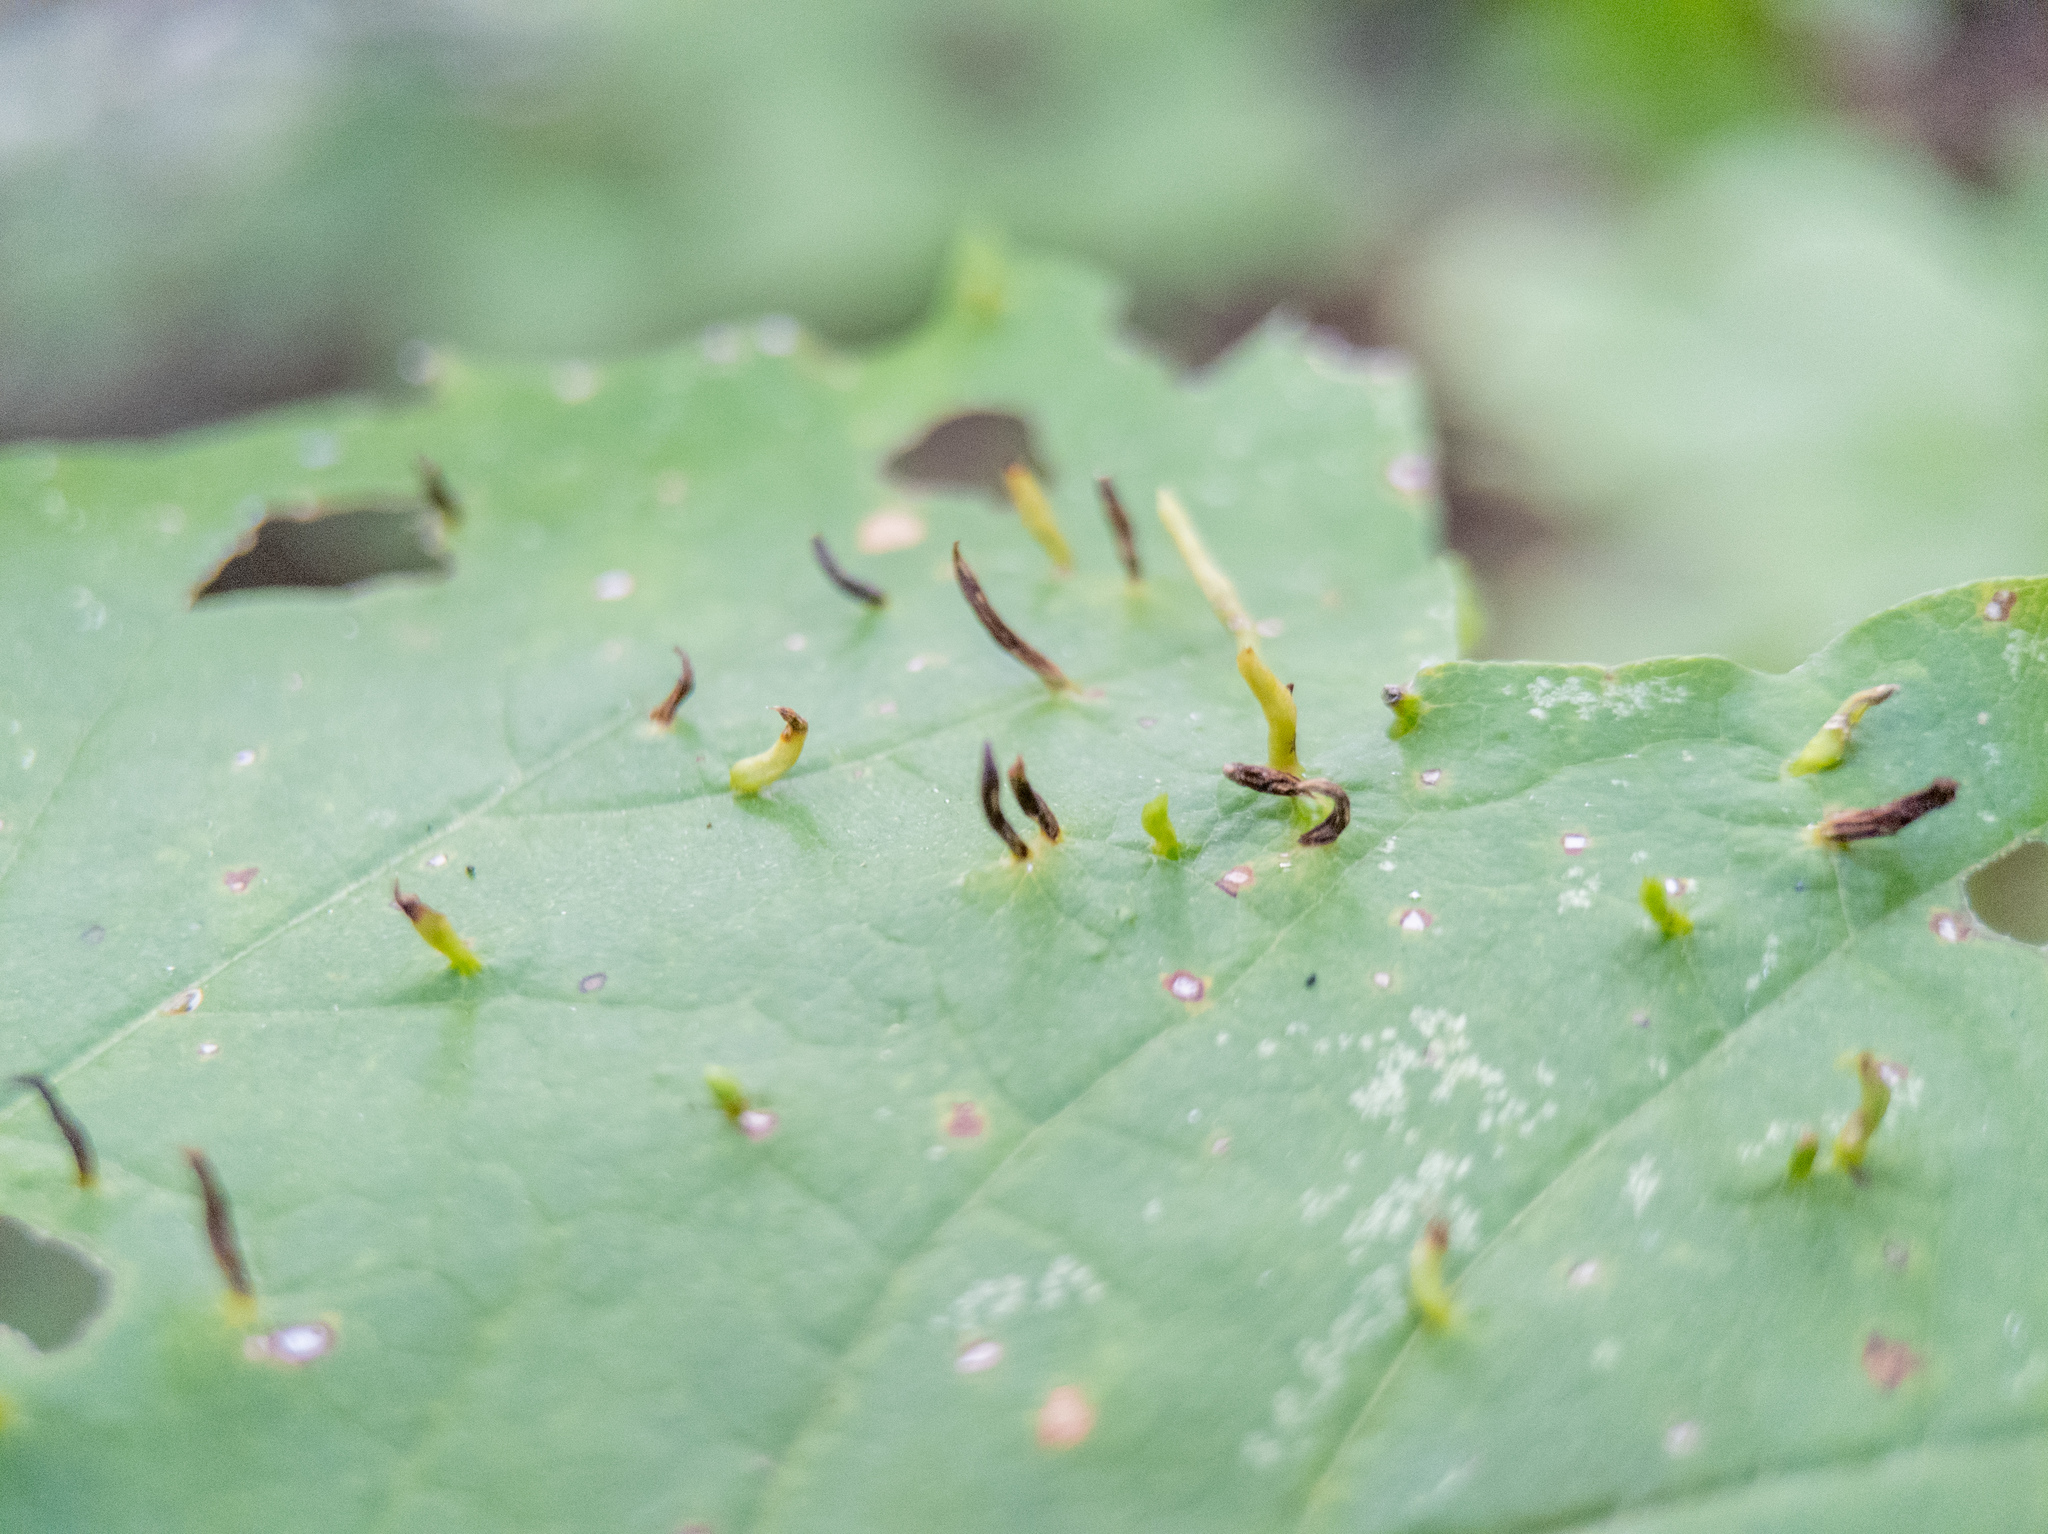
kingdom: Animalia
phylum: Arthropoda
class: Arachnida
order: Trombidiformes
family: Eriophyidae
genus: Vasates
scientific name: Vasates aceriscrumena
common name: Maple spindle gall mite
